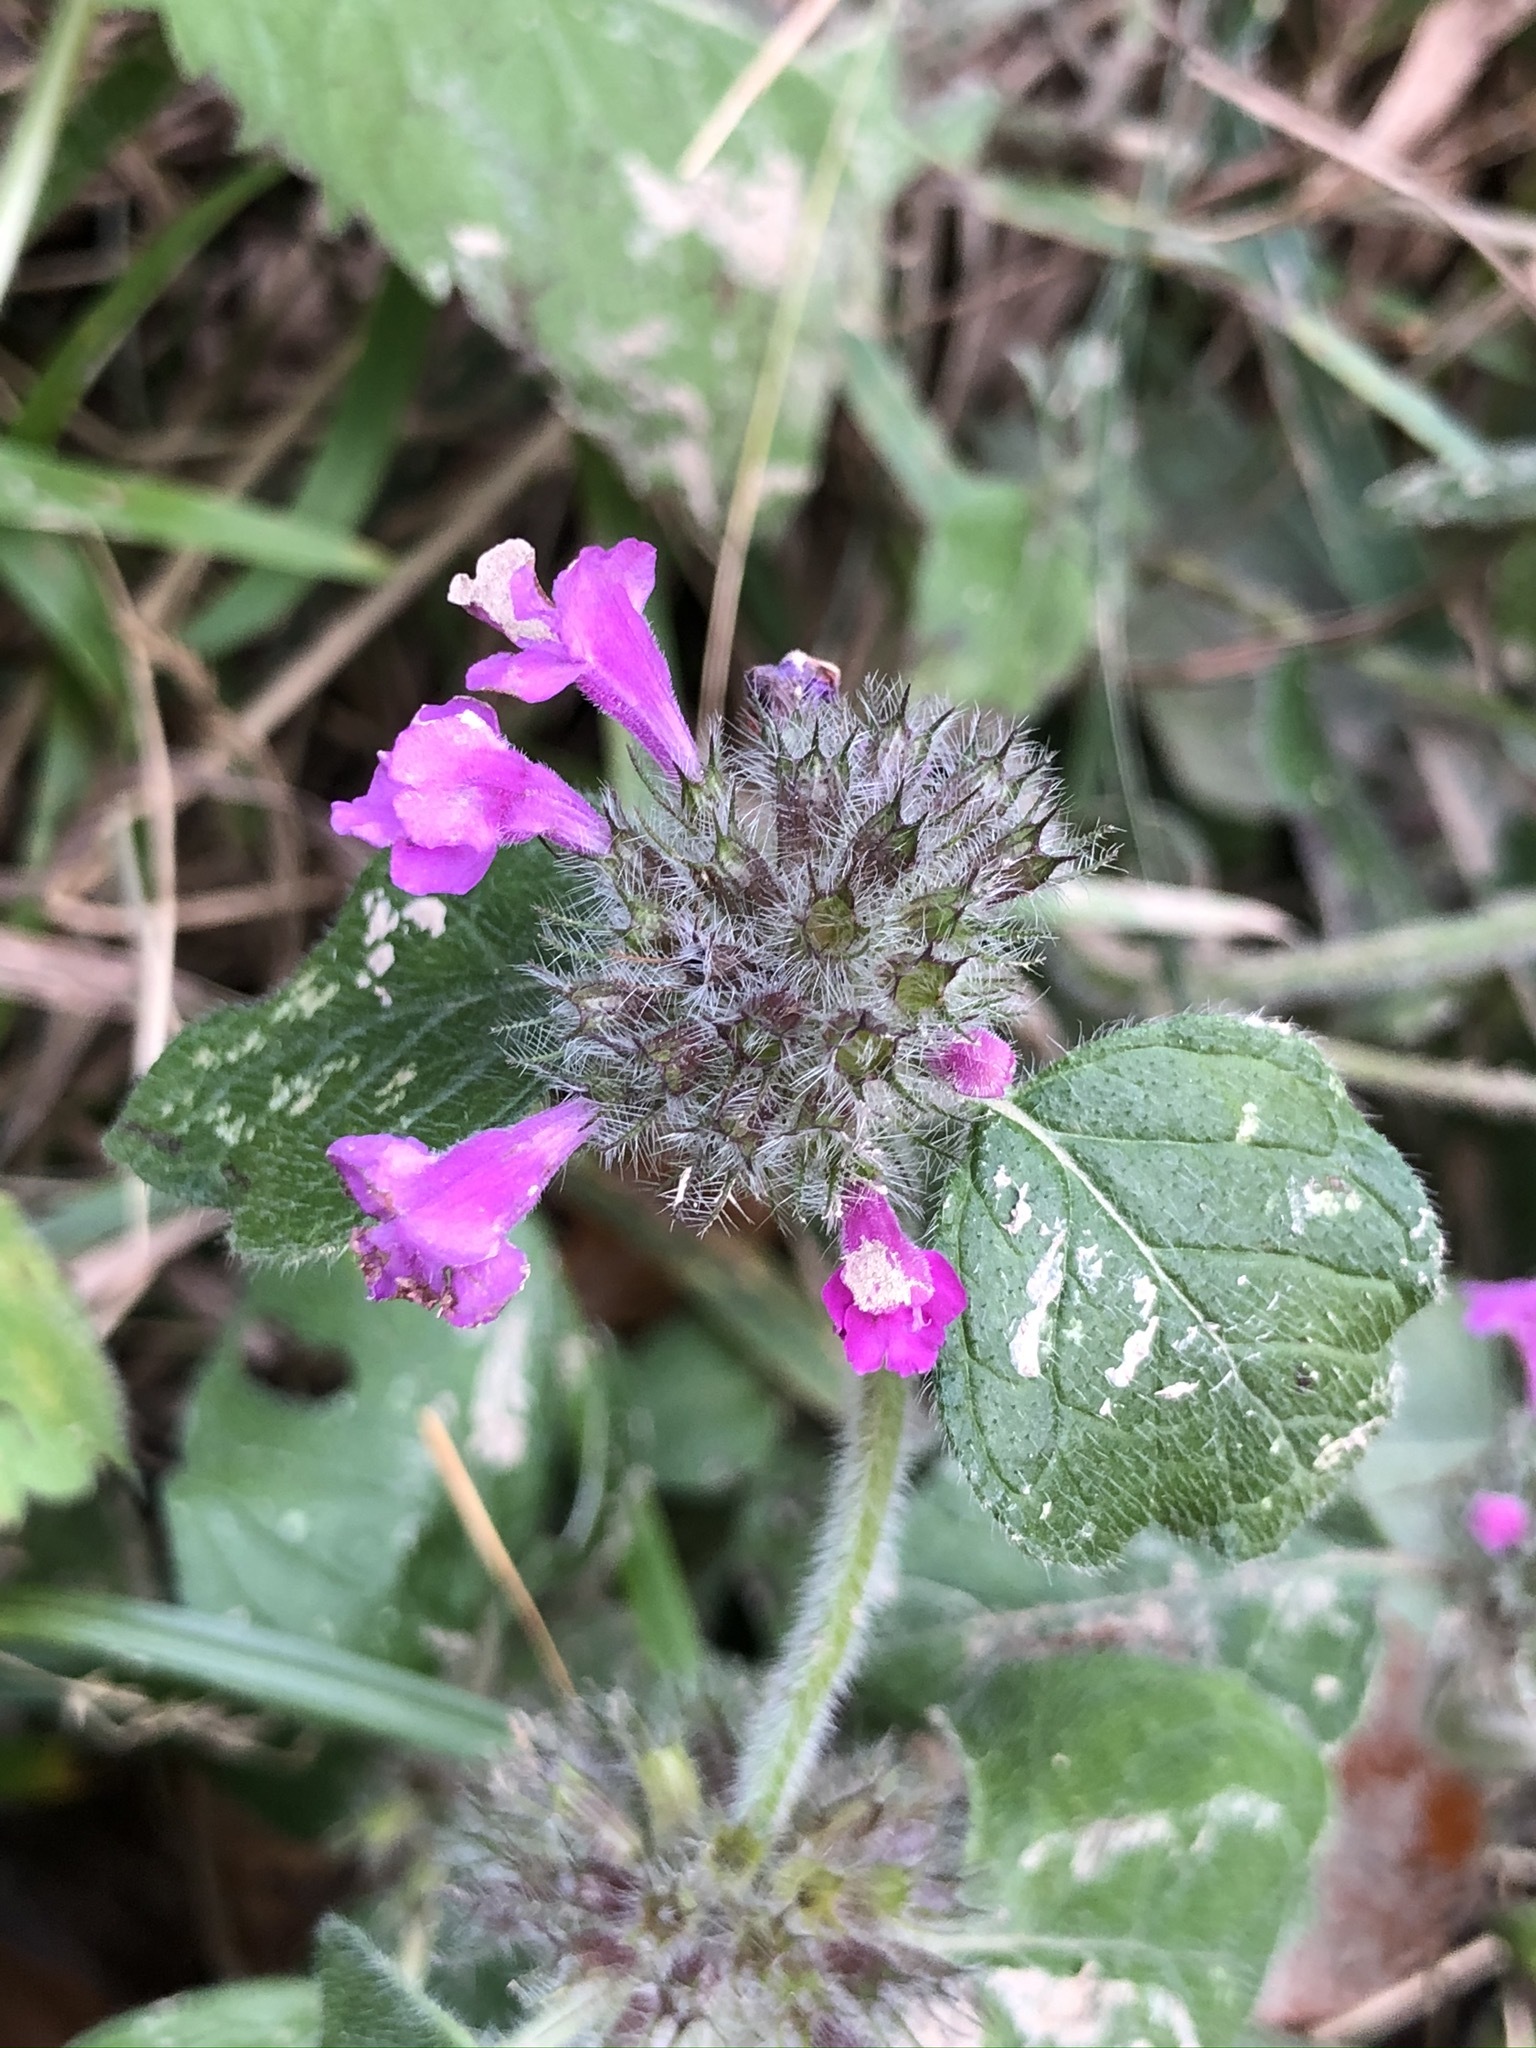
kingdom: Plantae
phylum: Tracheophyta
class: Magnoliopsida
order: Lamiales
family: Lamiaceae
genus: Clinopodium
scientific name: Clinopodium vulgare
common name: Wild basil
